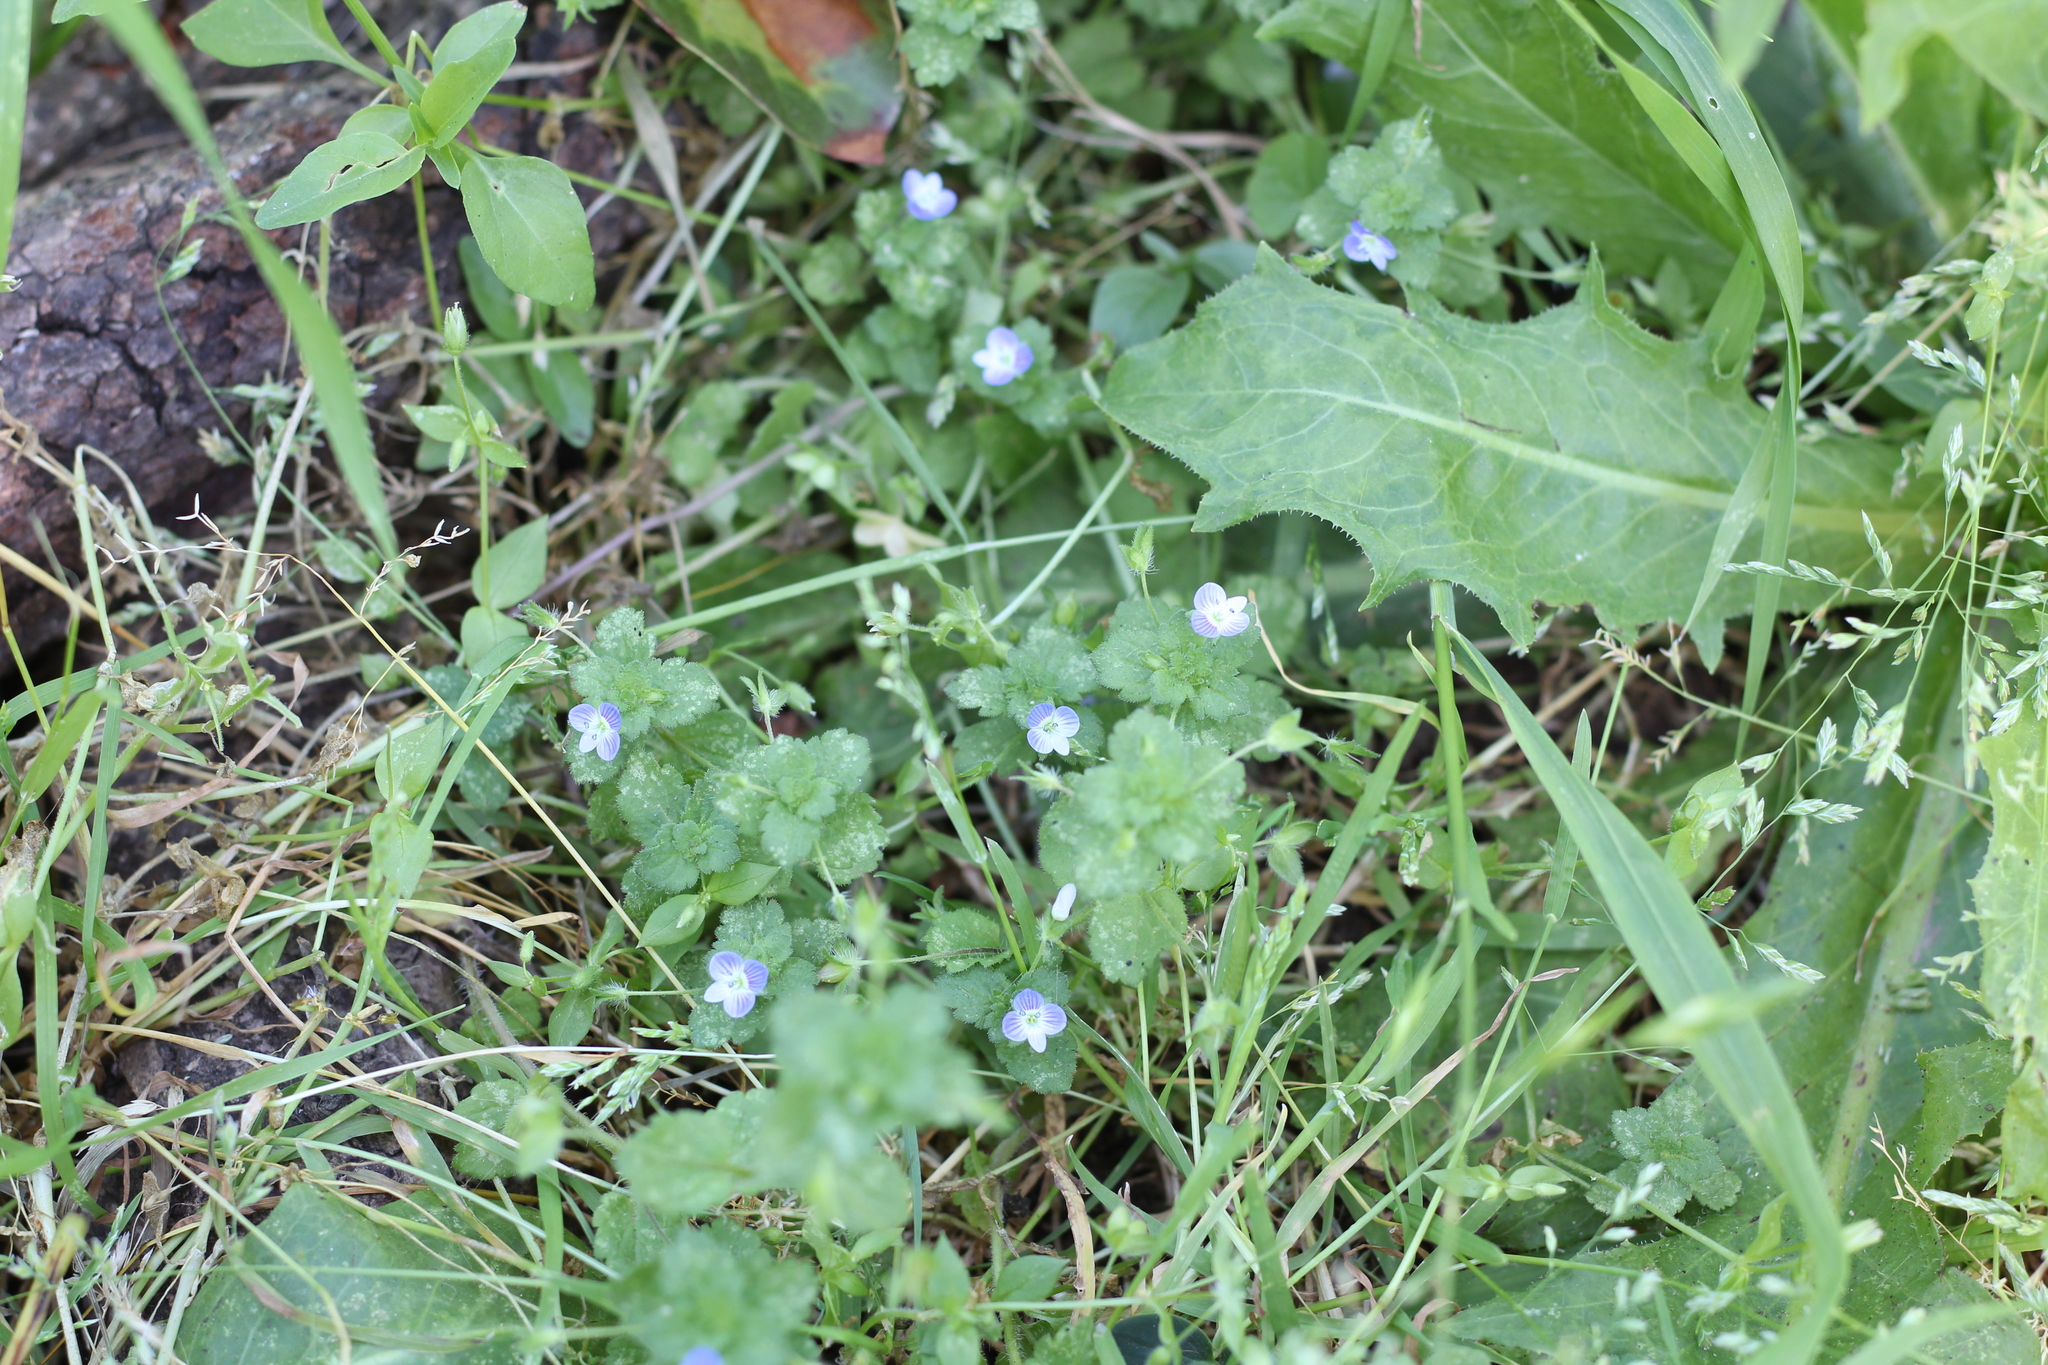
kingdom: Plantae
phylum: Tracheophyta
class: Magnoliopsida
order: Lamiales
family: Plantaginaceae
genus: Veronica
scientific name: Veronica persica
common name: Common field-speedwell
